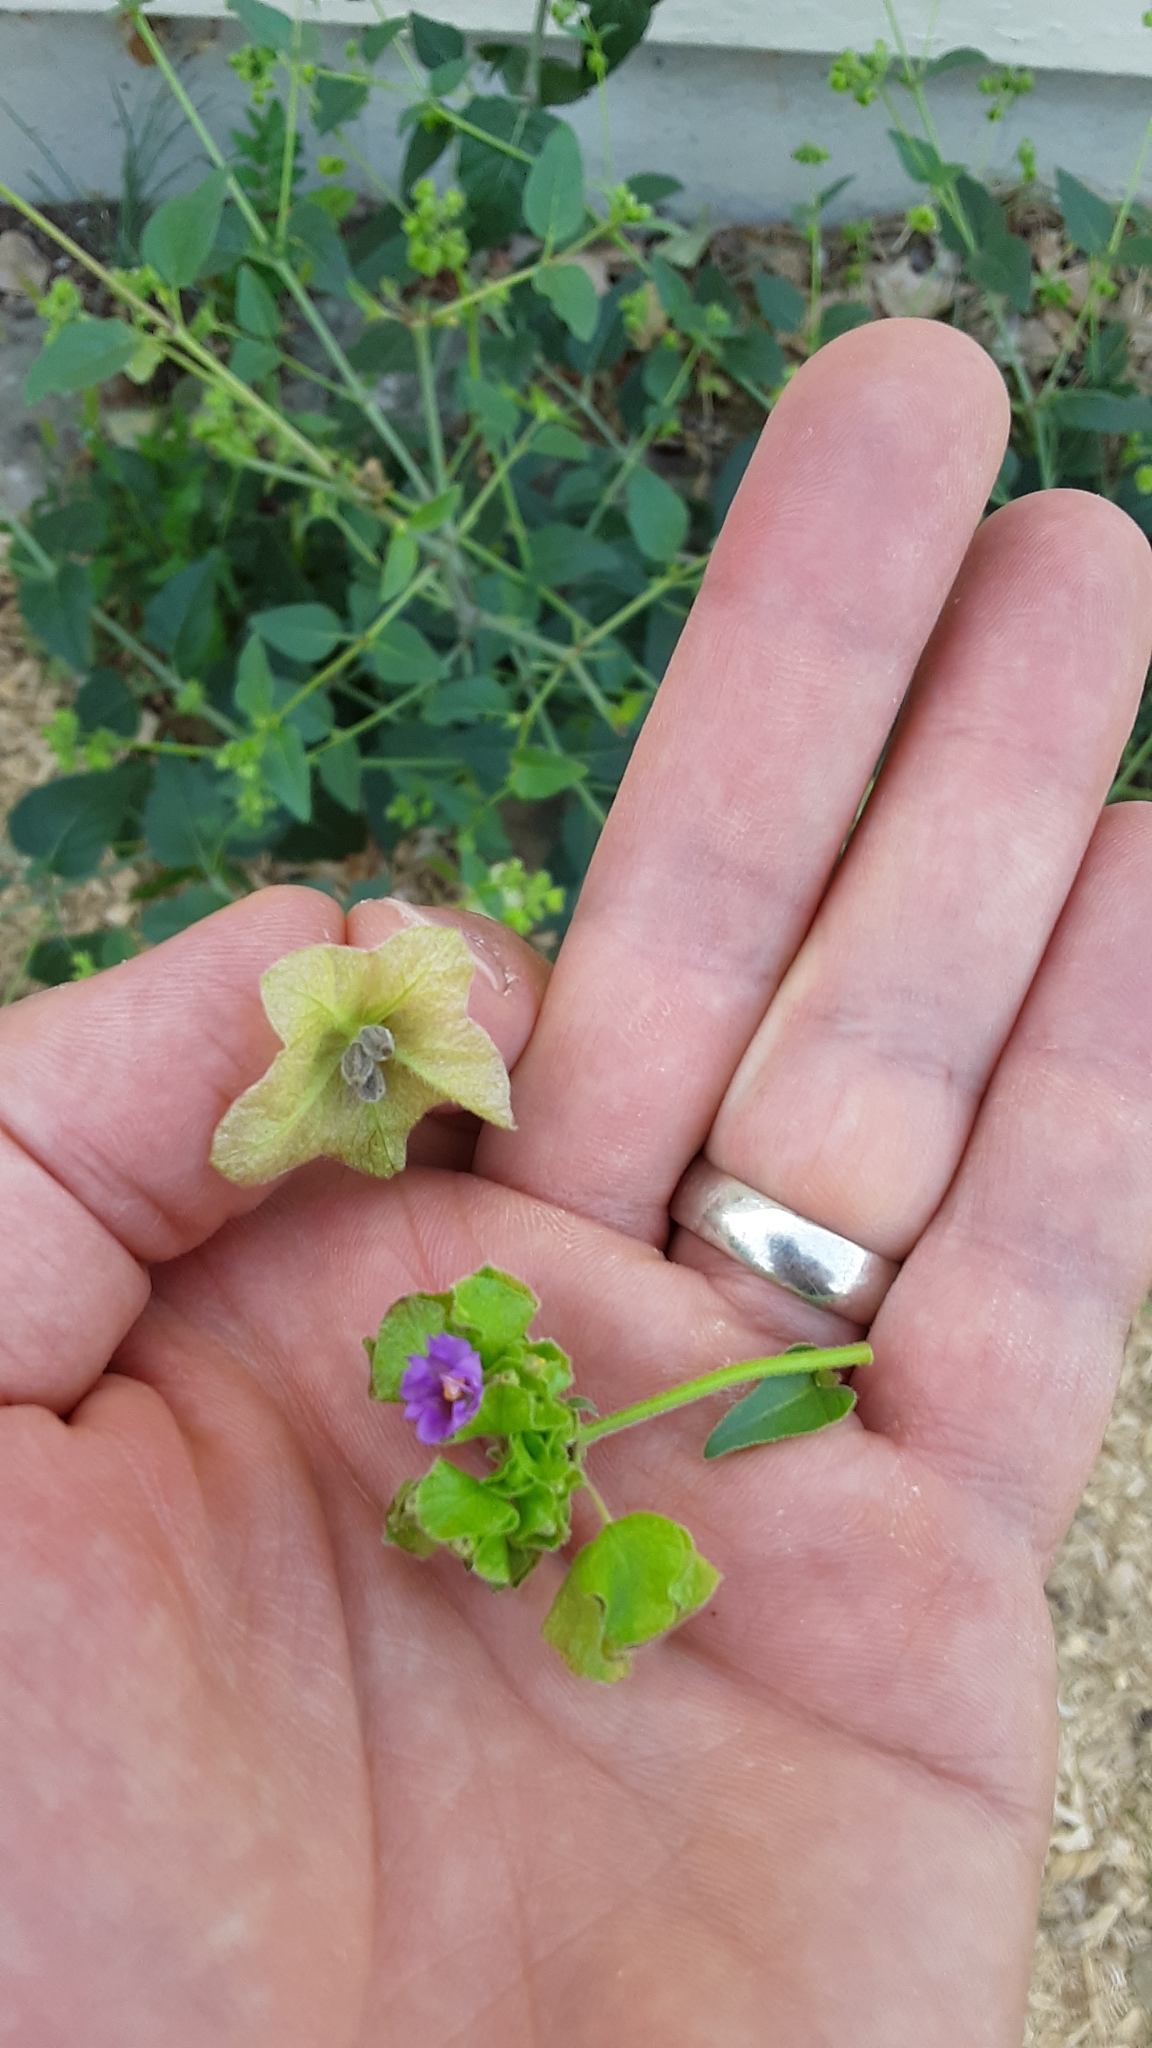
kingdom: Plantae
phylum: Tracheophyta
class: Magnoliopsida
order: Caryophyllales
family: Nyctaginaceae
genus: Mirabilis
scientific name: Mirabilis nyctaginea
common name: Umbrella wort
